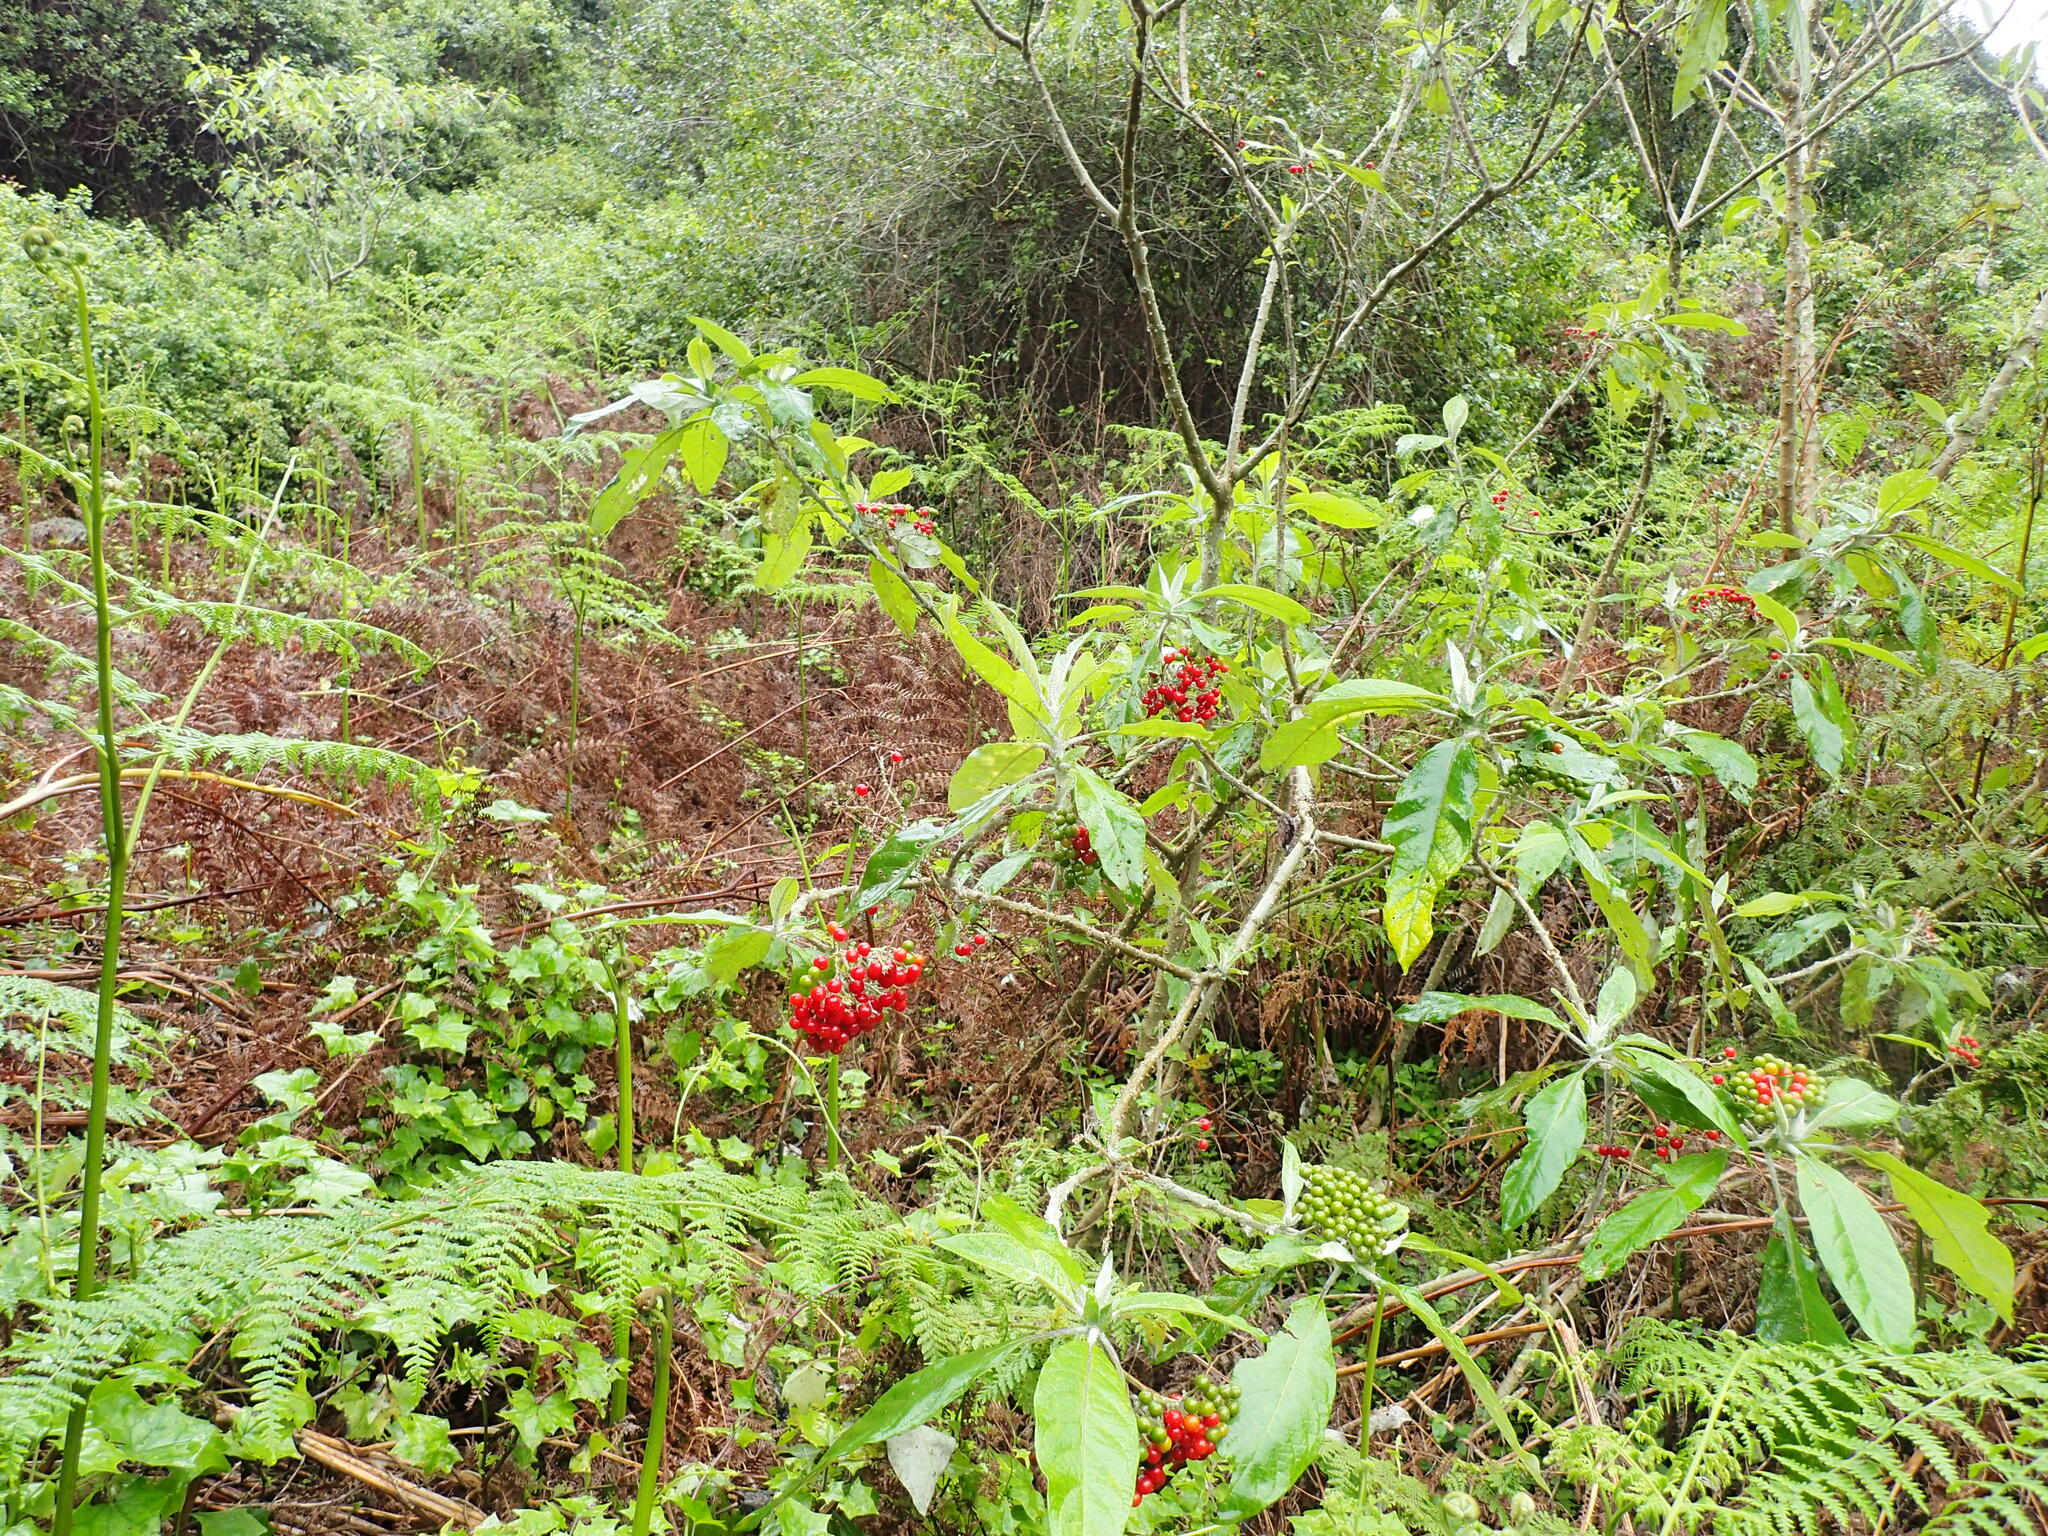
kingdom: Plantae
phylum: Tracheophyta
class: Magnoliopsida
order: Solanales
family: Solanaceae
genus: Solanum
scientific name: Solanum giganteum
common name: Healing-leaf-tree
